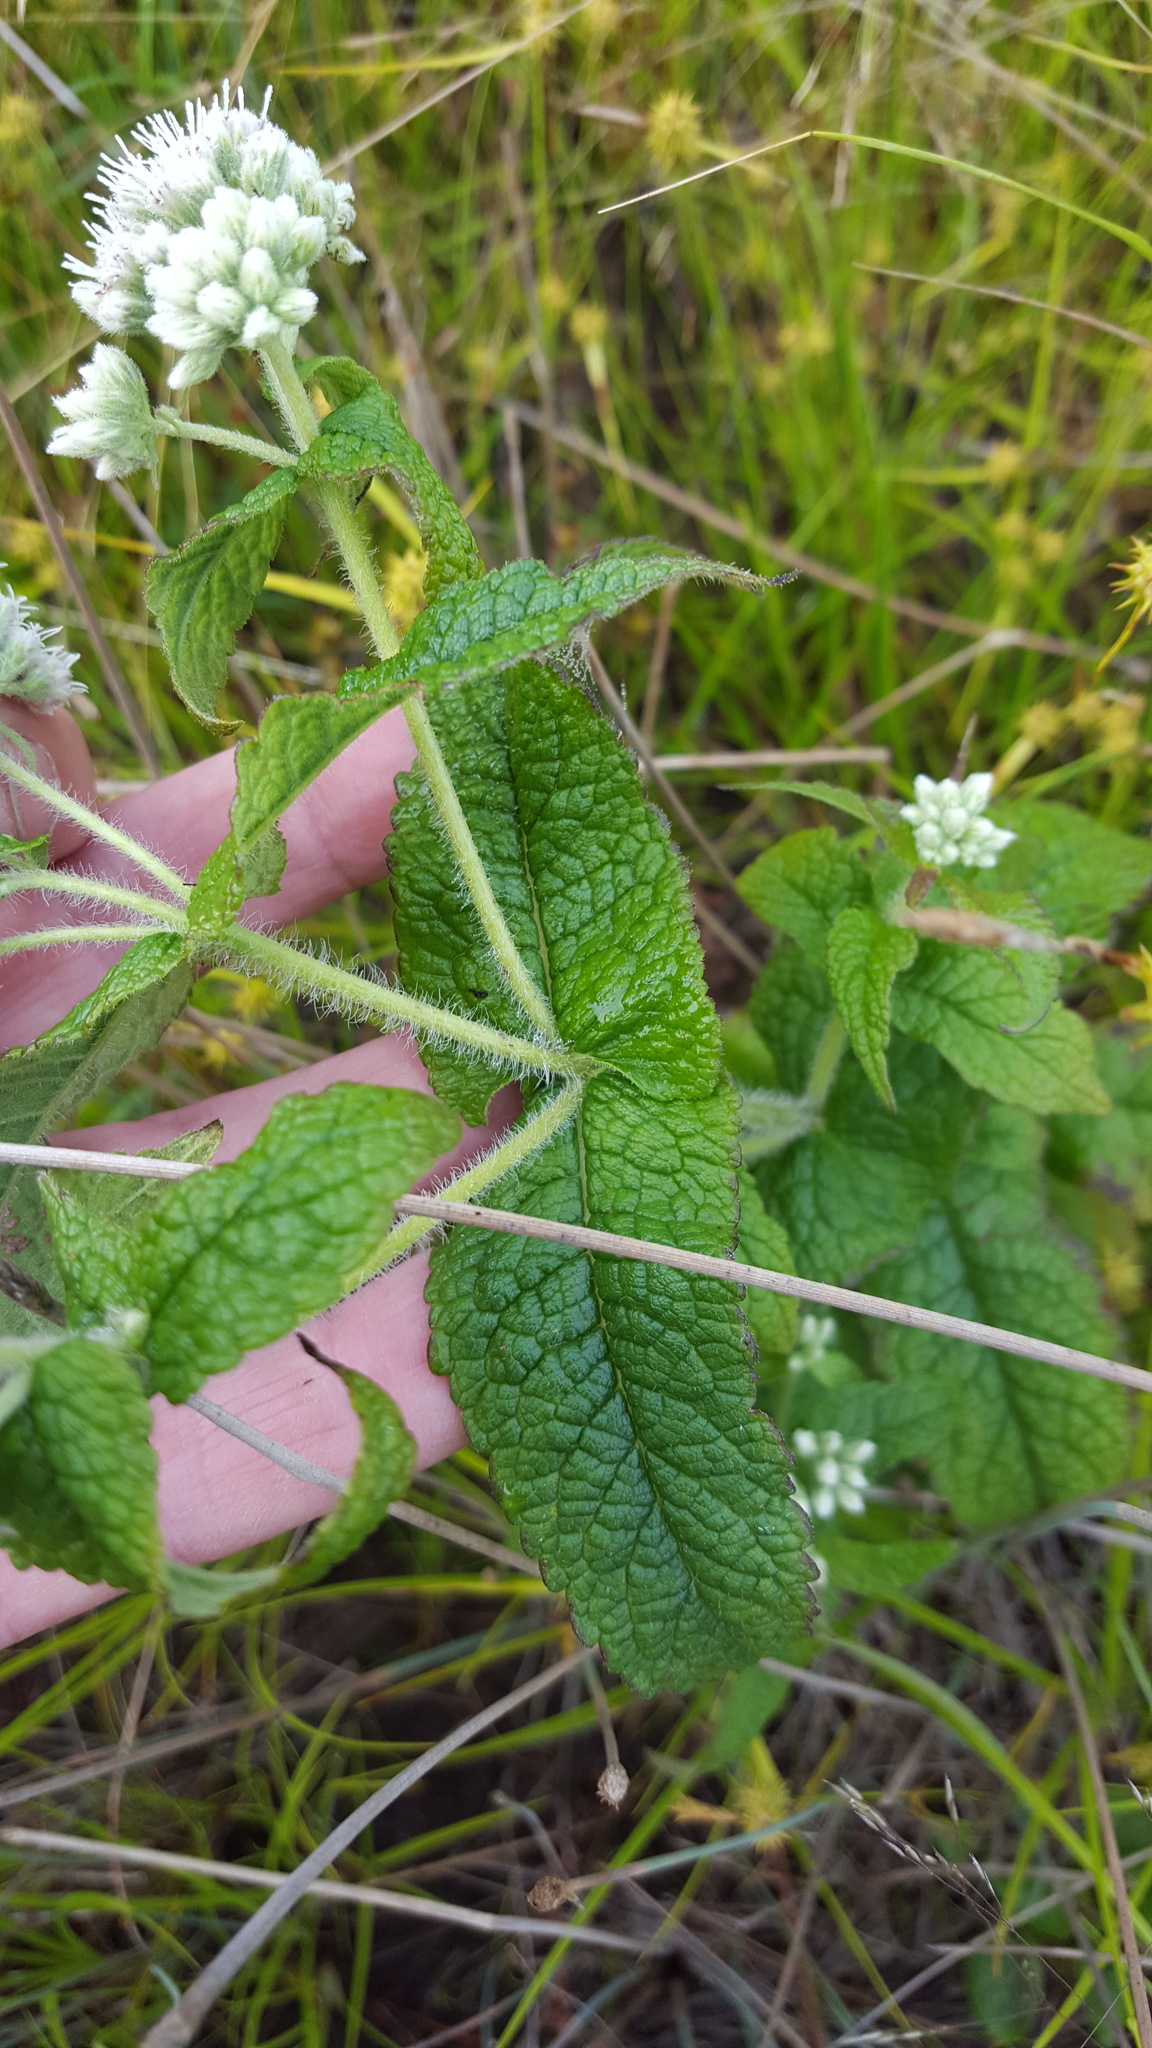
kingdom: Plantae
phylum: Tracheophyta
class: Magnoliopsida
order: Asterales
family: Asteraceae
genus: Eupatorium
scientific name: Eupatorium perfoliatum
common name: Boneset
